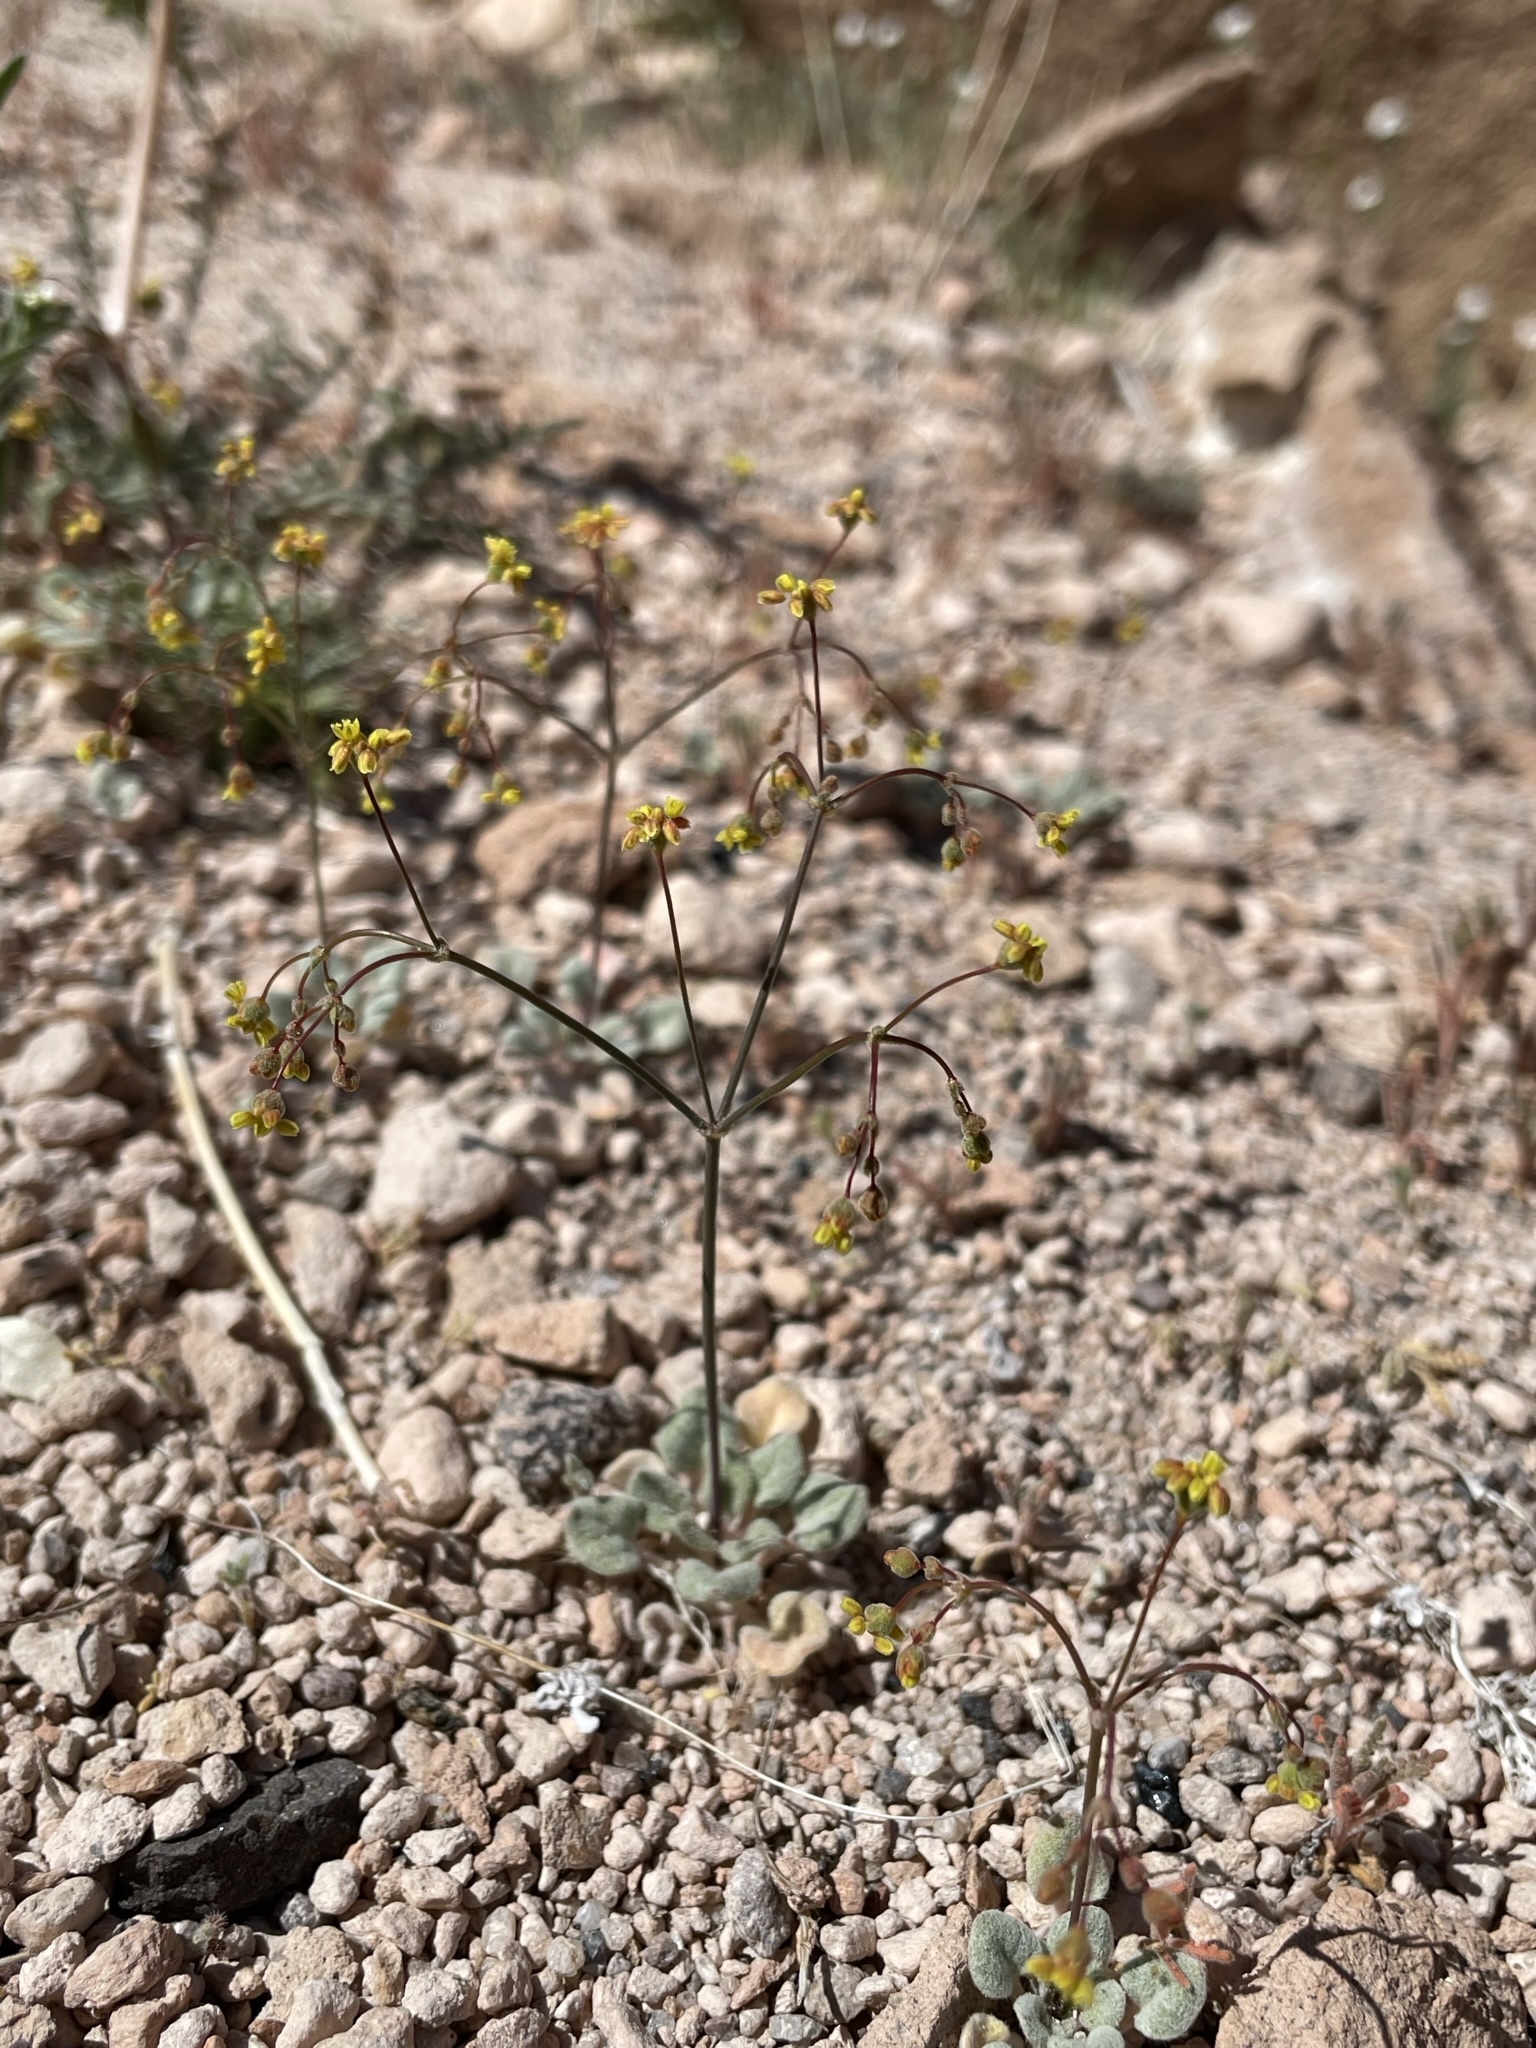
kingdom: Plantae
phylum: Tracheophyta
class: Magnoliopsida
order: Caryophyllales
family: Polygonaceae
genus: Eriogonum
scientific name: Eriogonum pusillum
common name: Yellow turbans
